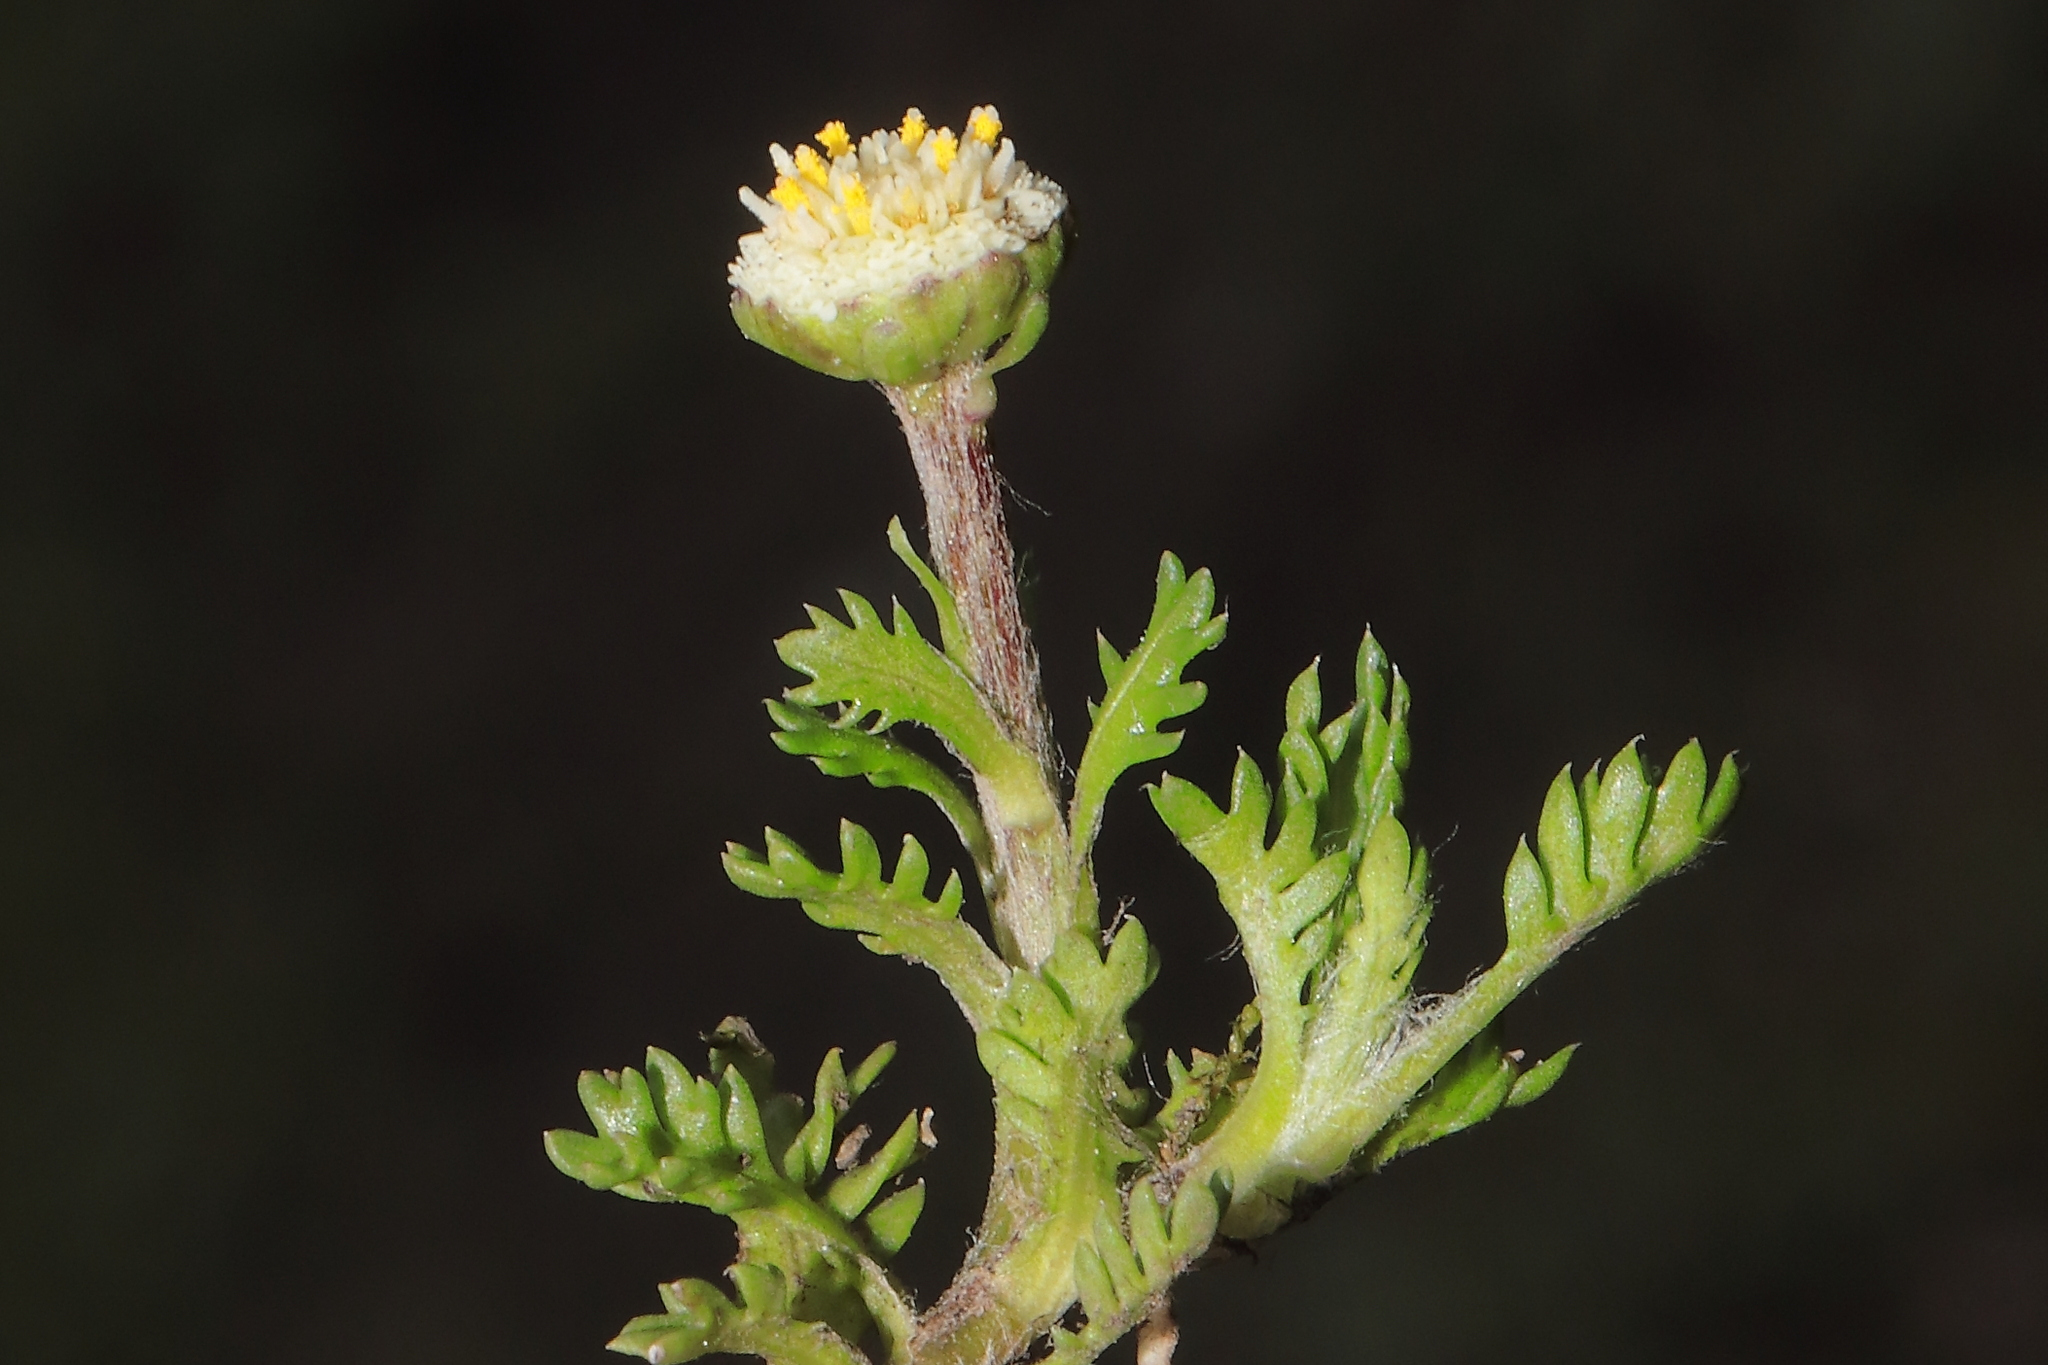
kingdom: Plantae
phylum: Tracheophyta
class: Magnoliopsida
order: Asterales
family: Asteraceae
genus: Plagiocheilus
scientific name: Plagiocheilus frigidus
